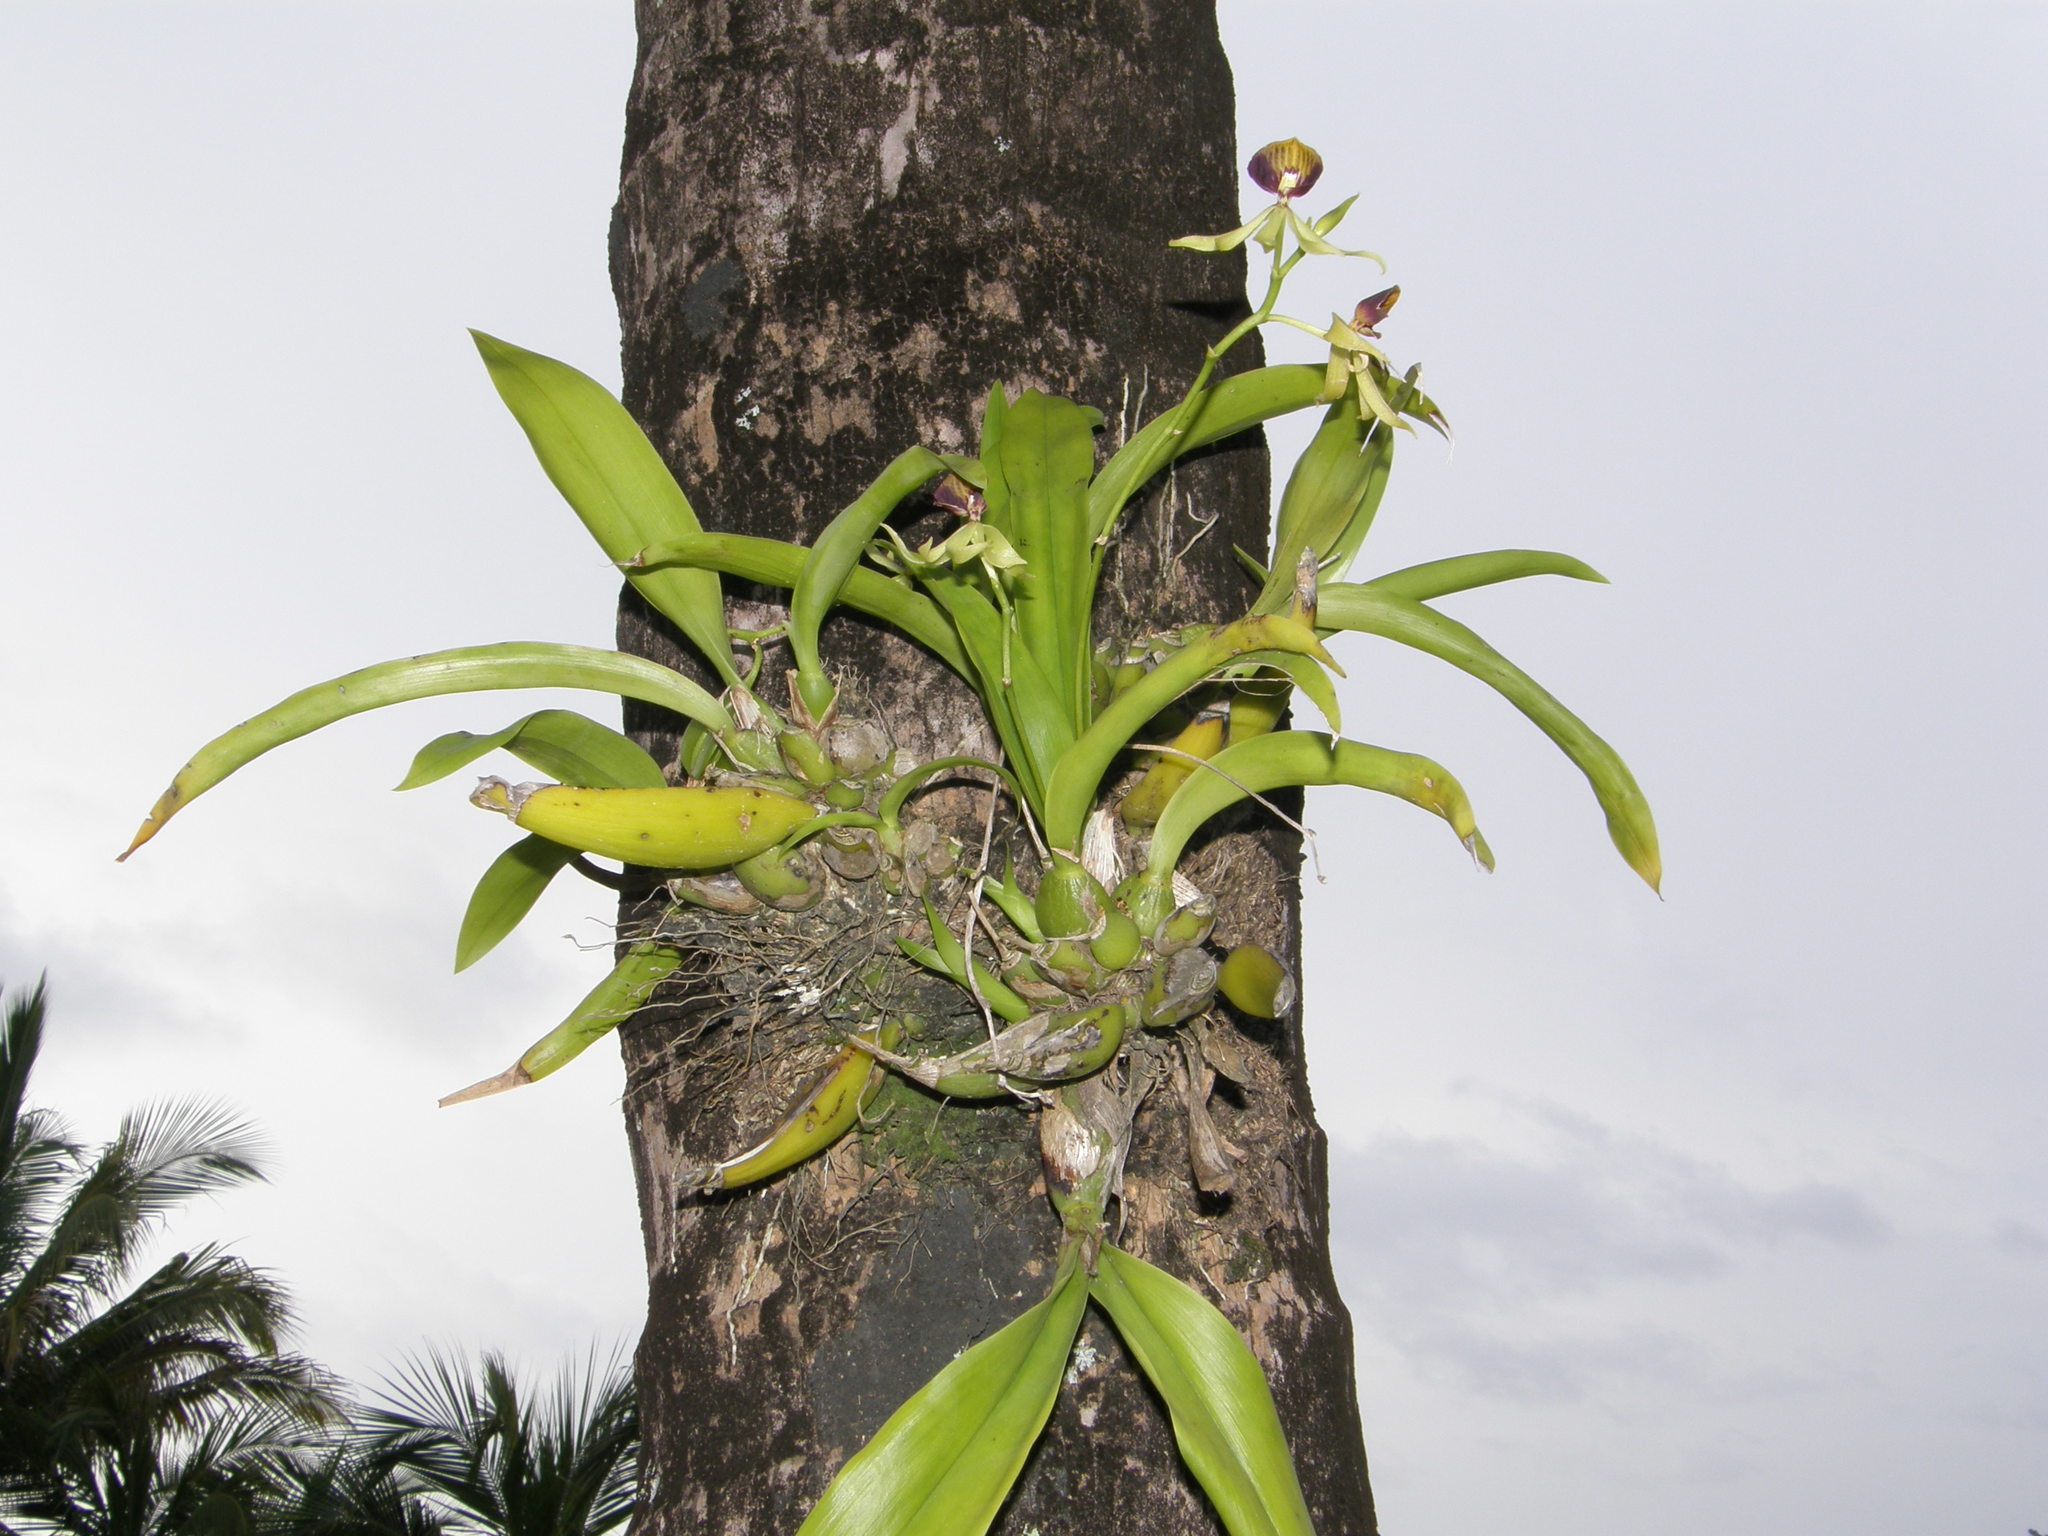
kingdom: Plantae
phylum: Tracheophyta
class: Liliopsida
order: Asparagales
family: Orchidaceae
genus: Prosthechea
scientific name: Prosthechea cochleata
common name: Clamshell orchid
